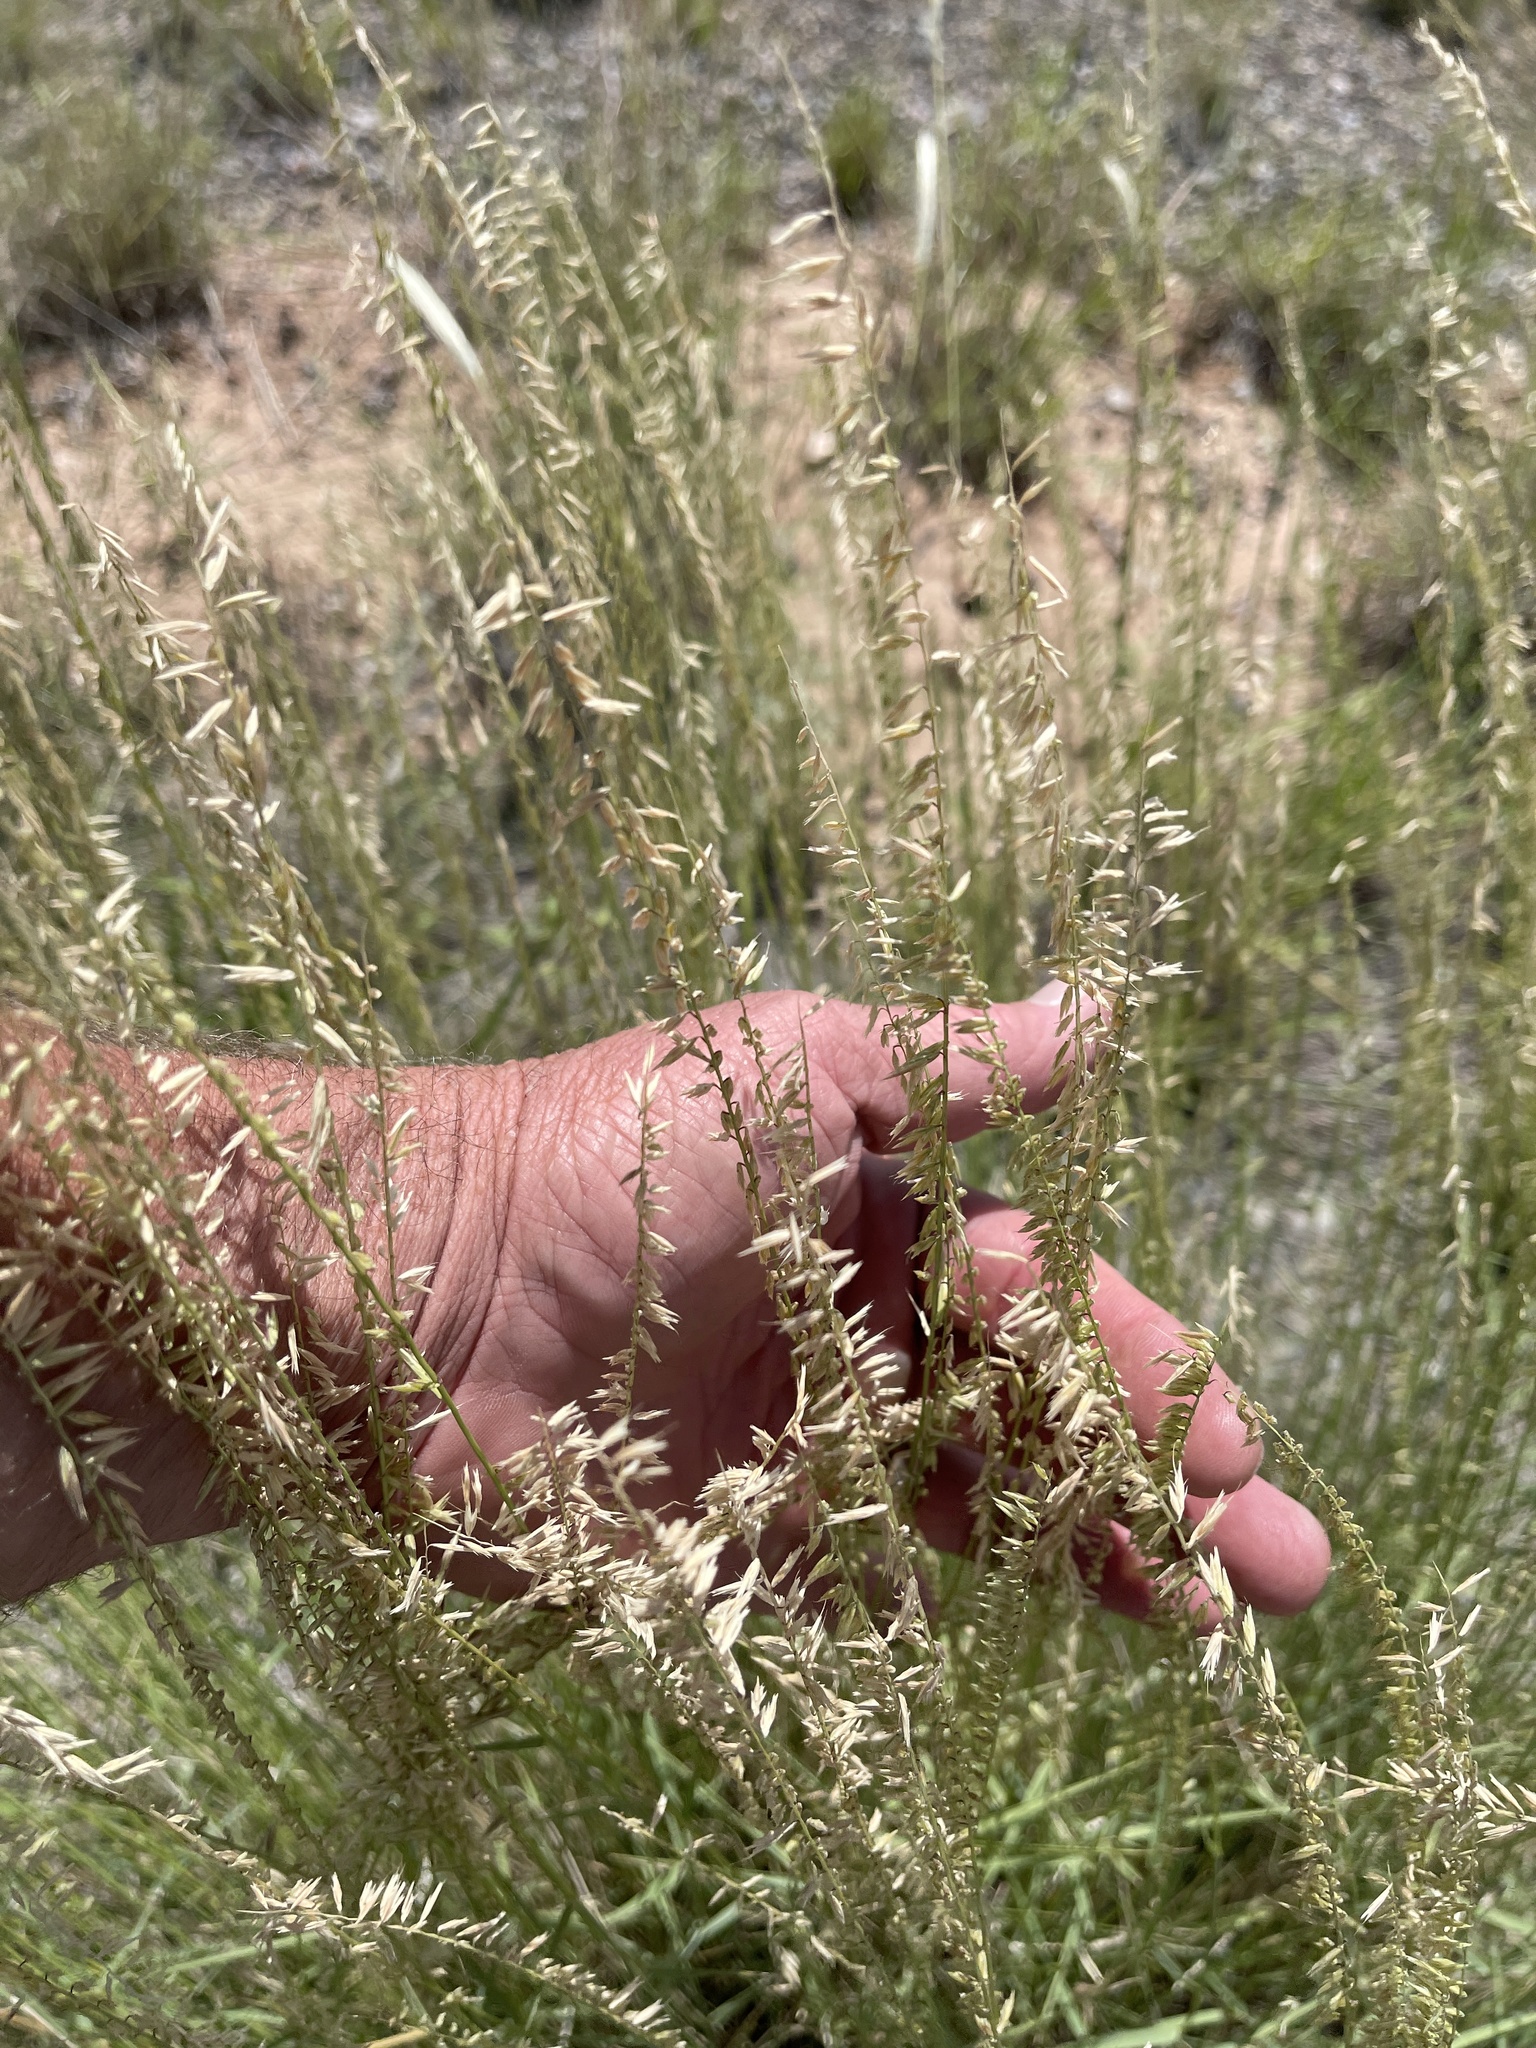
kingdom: Plantae
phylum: Tracheophyta
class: Liliopsida
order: Poales
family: Poaceae
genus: Bouteloua
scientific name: Bouteloua curtipendula
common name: Side-oats grama
